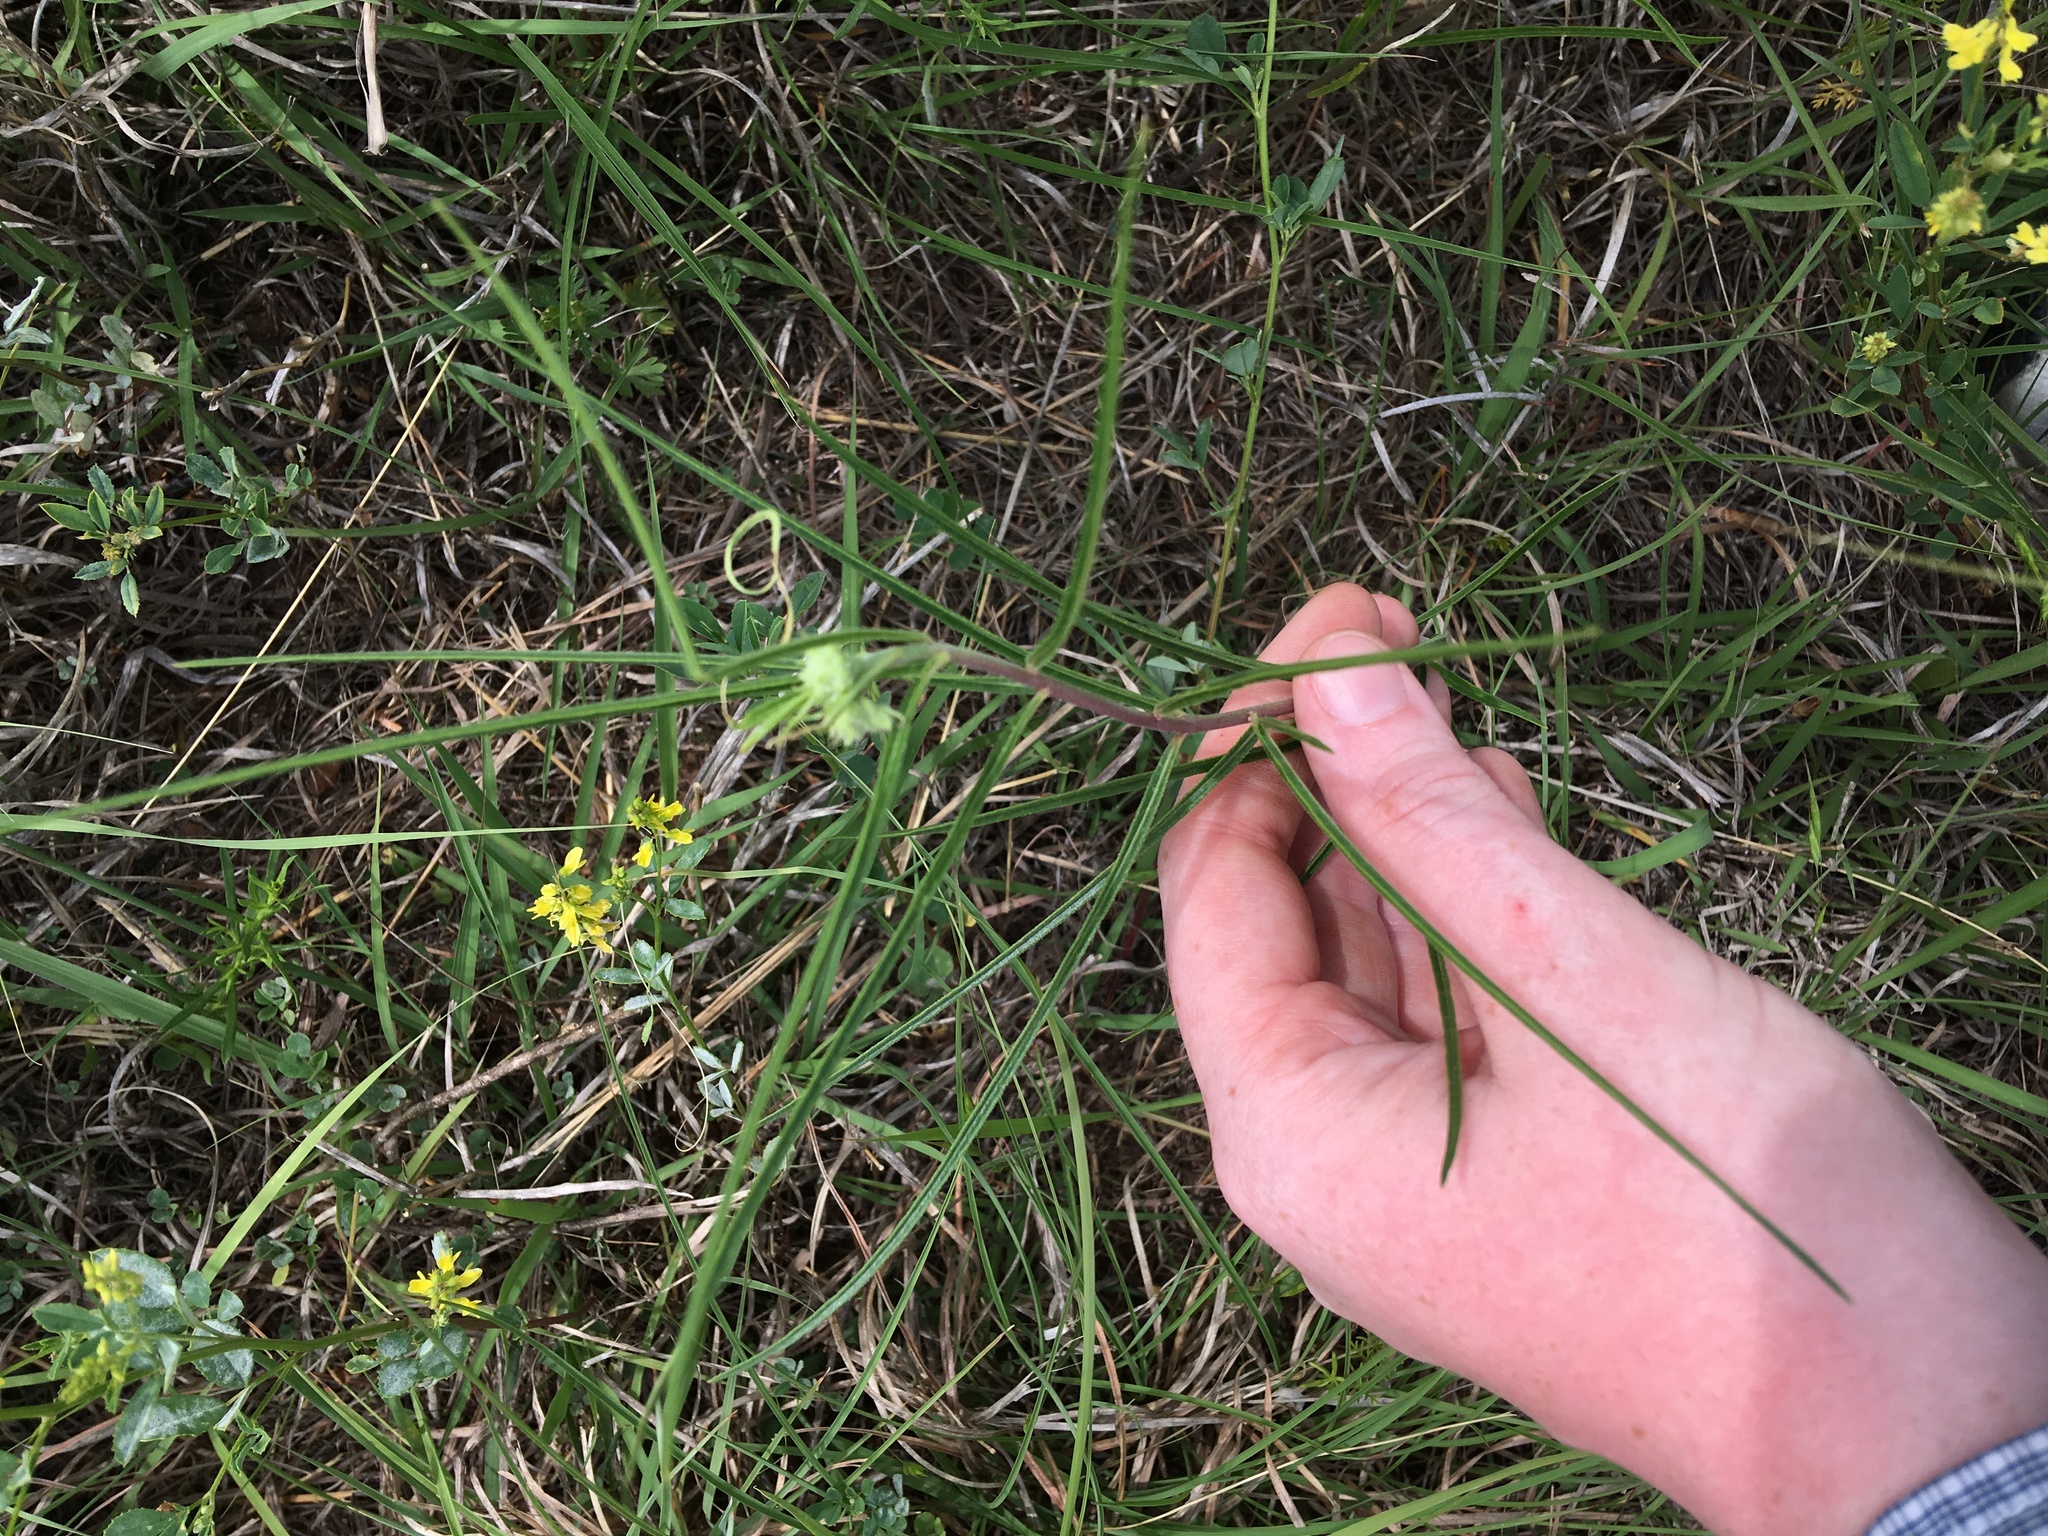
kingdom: Plantae
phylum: Tracheophyta
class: Magnoliopsida
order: Gentianales
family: Apocynaceae
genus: Asclepias
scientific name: Asclepias stenophylla
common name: Narrow-leaf milkweed
